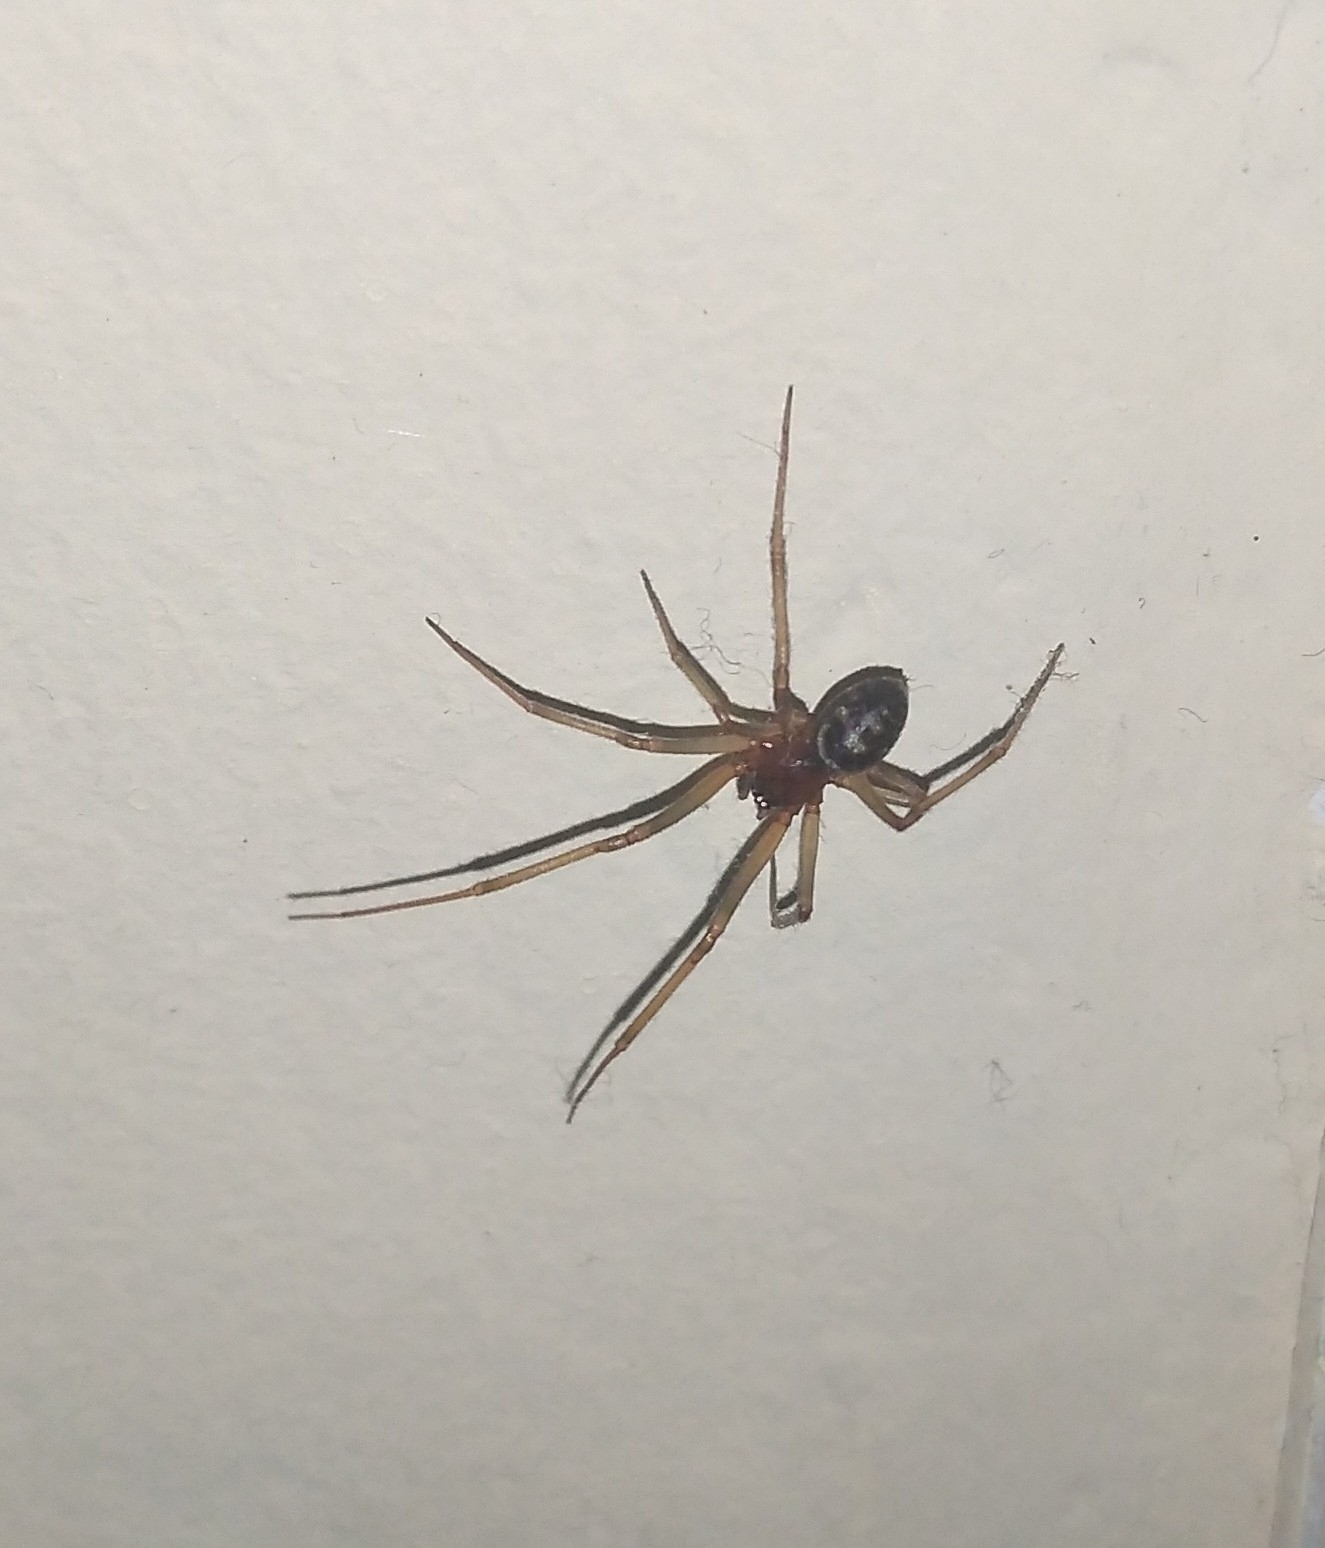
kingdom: Animalia
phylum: Arthropoda
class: Arachnida
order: Araneae
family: Theridiidae
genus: Steatoda
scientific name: Steatoda grossa
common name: False black widow
